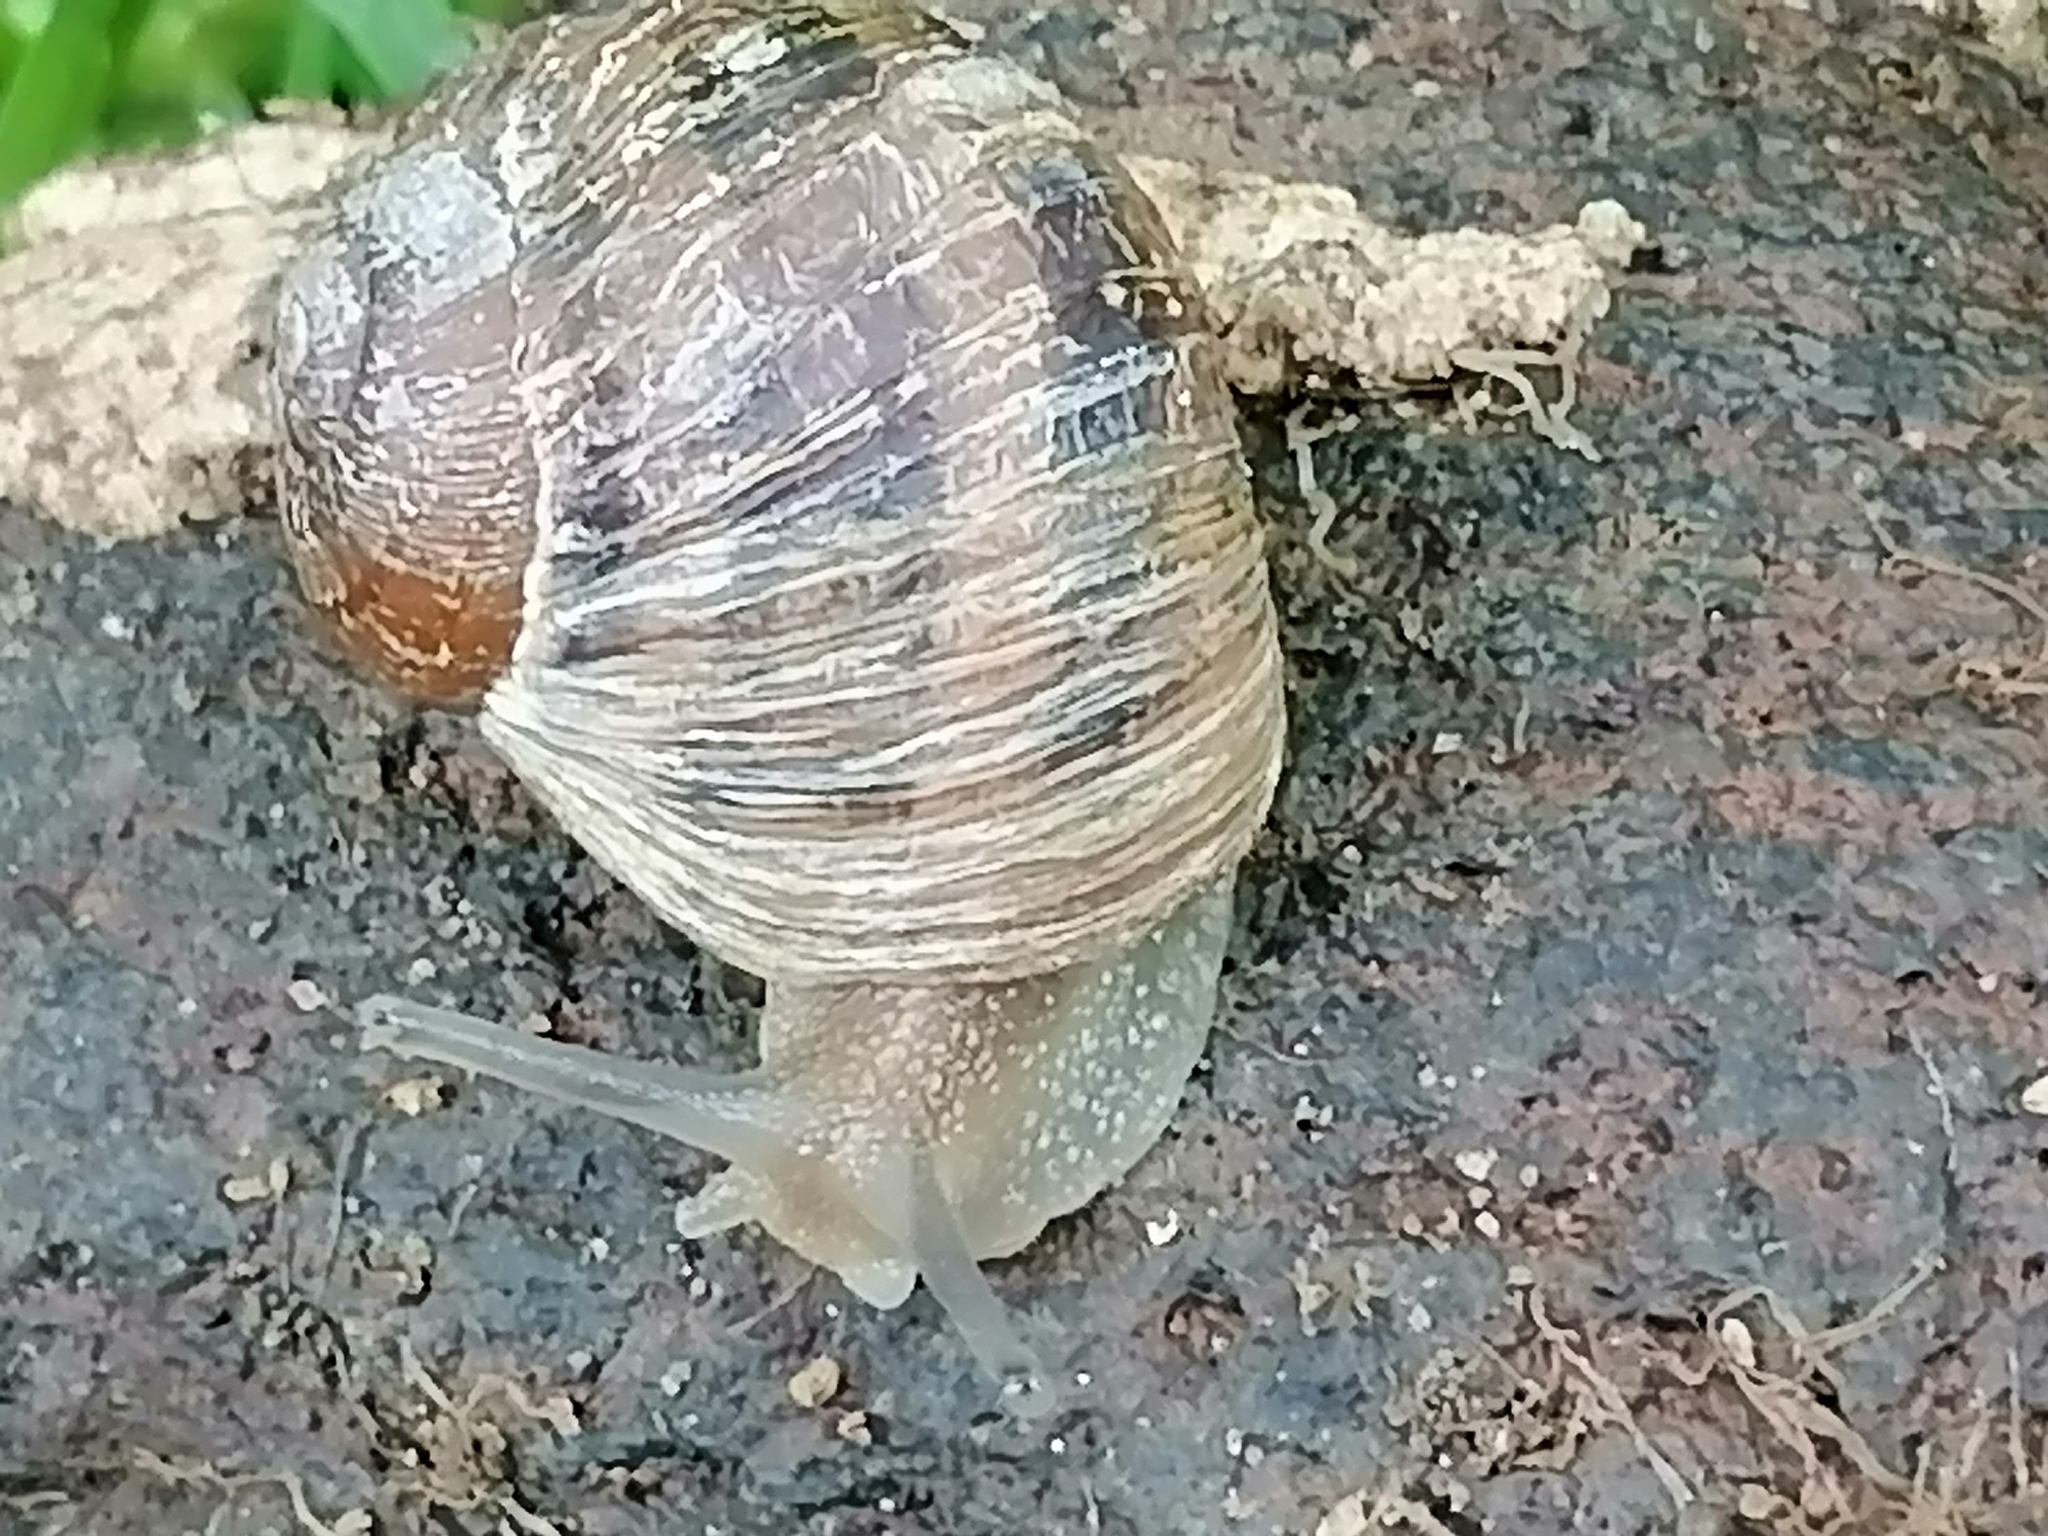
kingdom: Animalia
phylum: Mollusca
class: Gastropoda
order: Stylommatophora
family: Helicidae
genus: Cornu
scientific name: Cornu aspersum
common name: Brown garden snail
